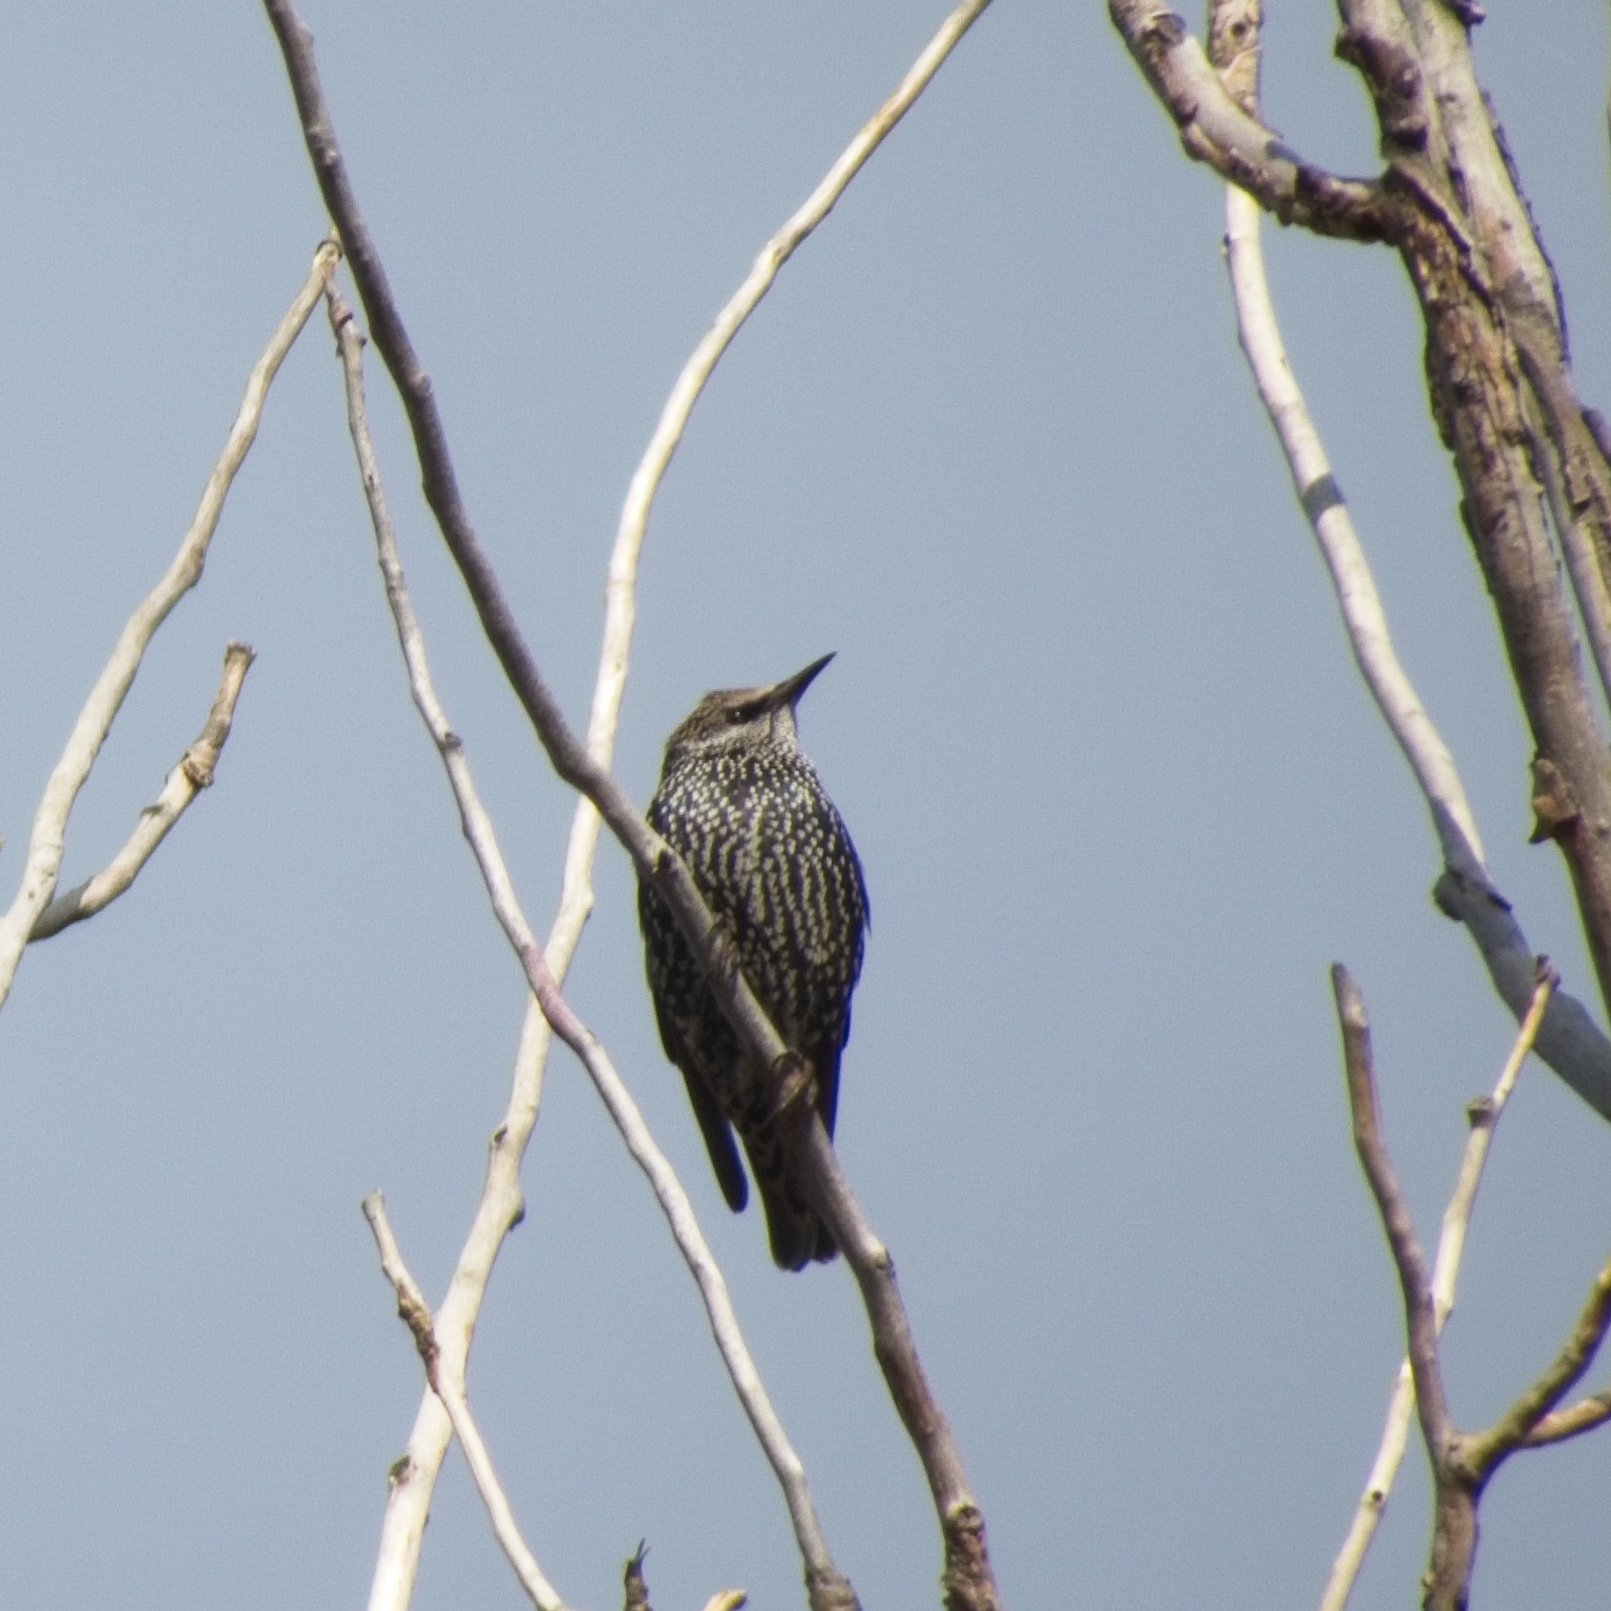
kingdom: Animalia
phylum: Chordata
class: Aves
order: Passeriformes
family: Sturnidae
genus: Sturnus
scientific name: Sturnus vulgaris
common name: Common starling
